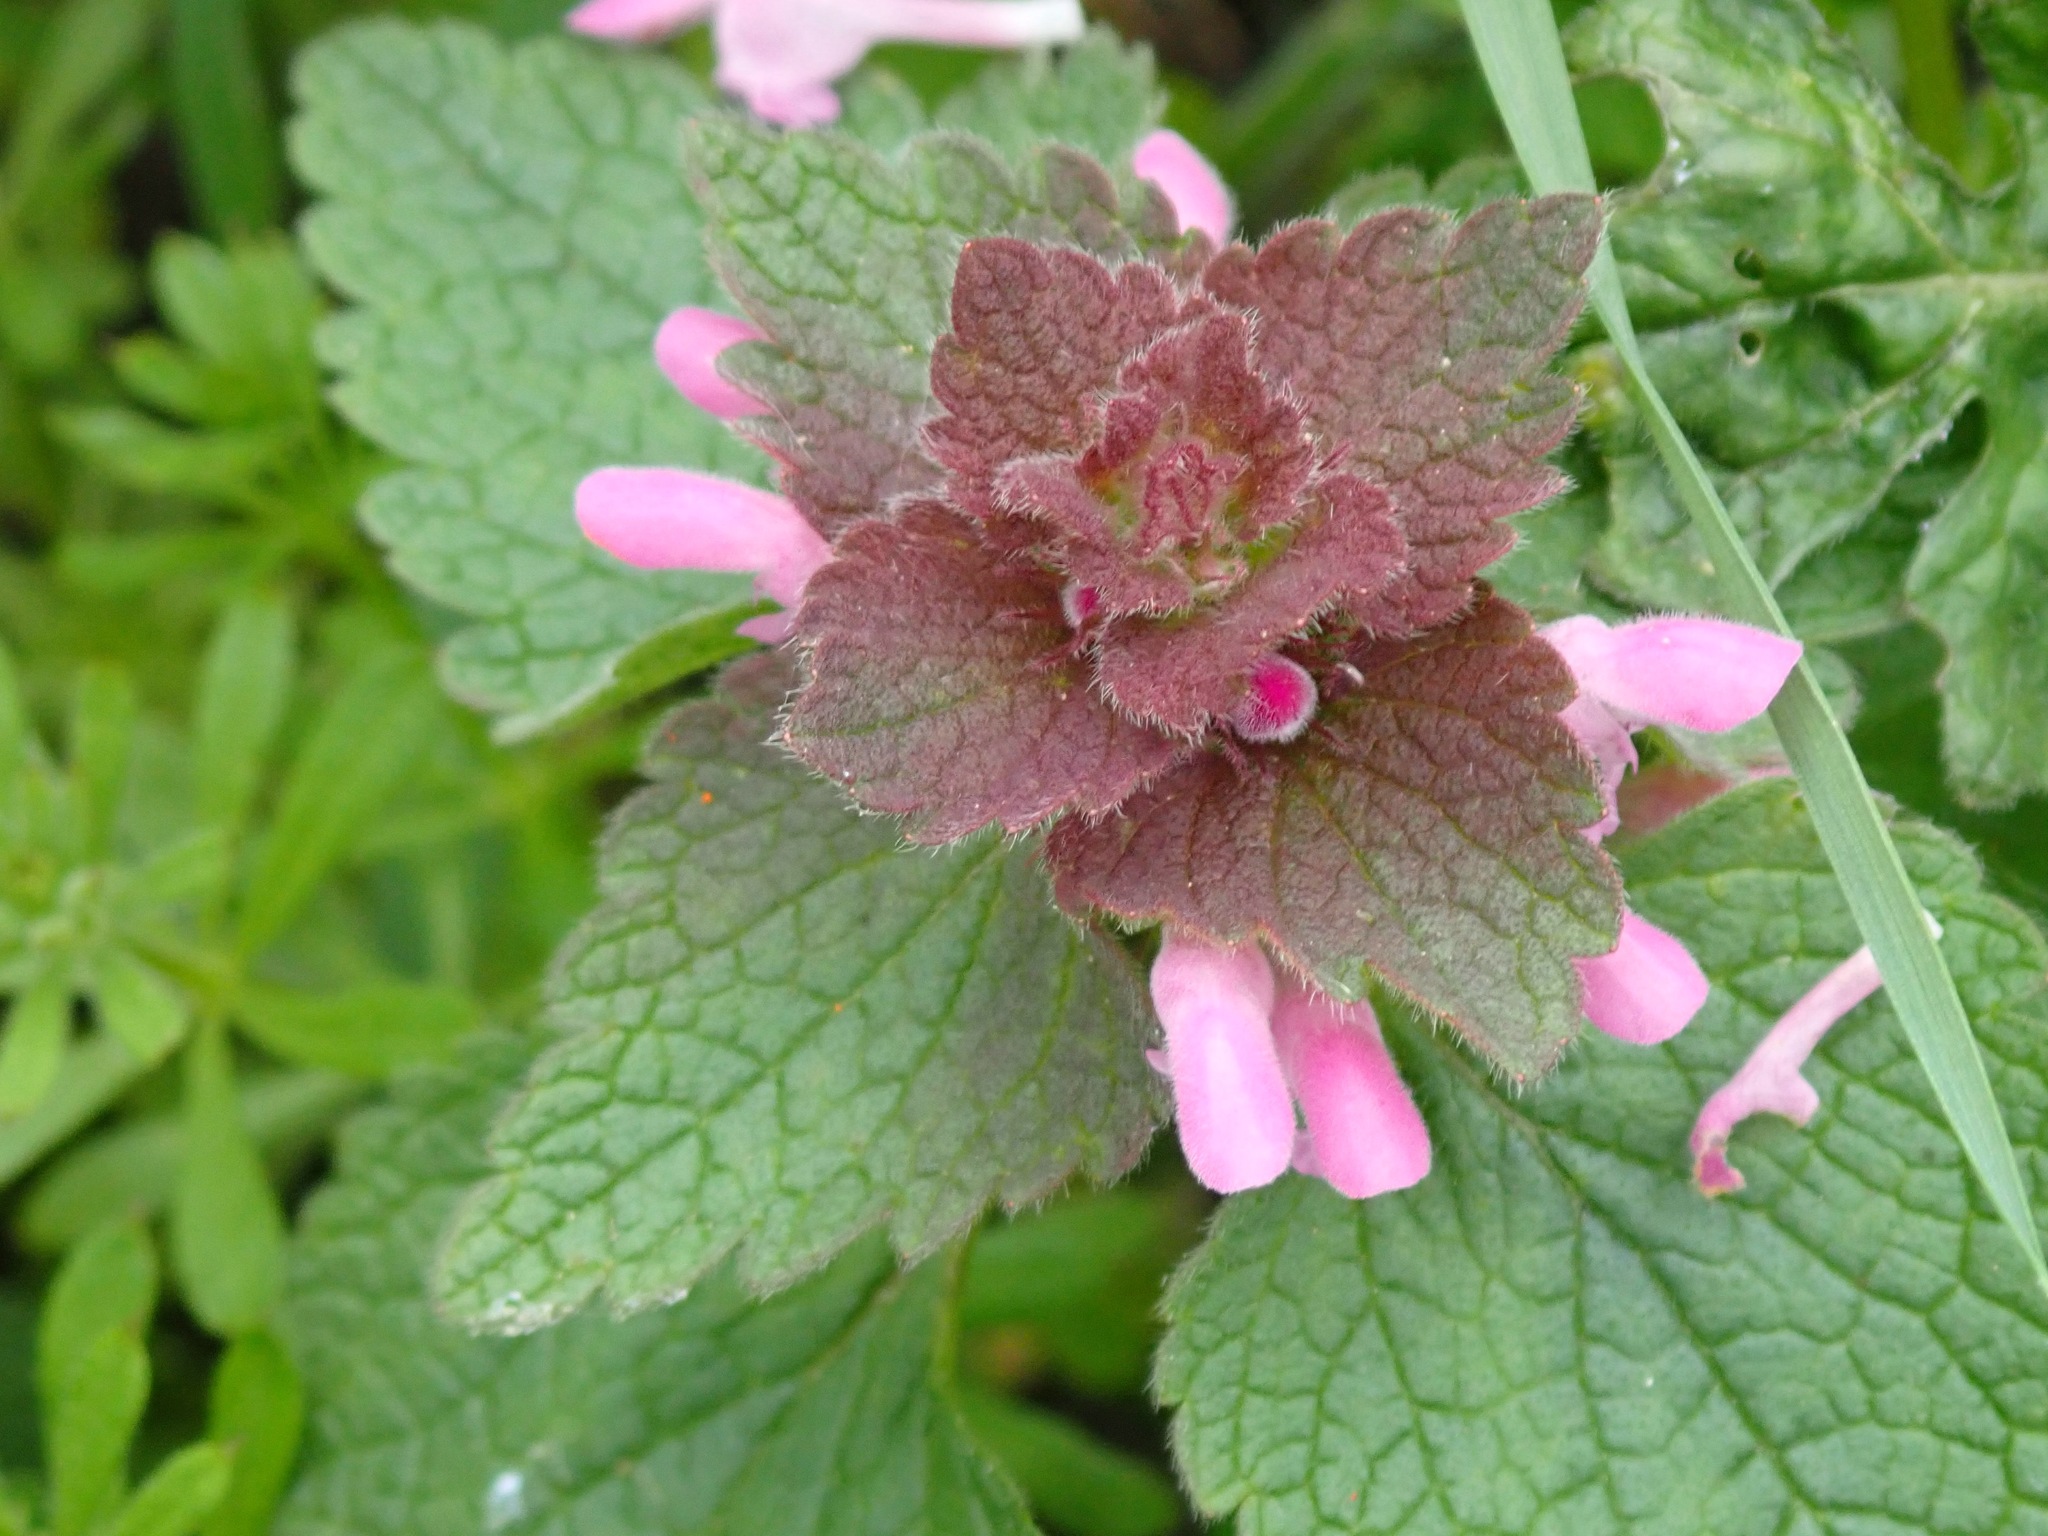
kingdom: Plantae
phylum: Tracheophyta
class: Magnoliopsida
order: Lamiales
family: Lamiaceae
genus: Lamium
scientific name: Lamium purpureum
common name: Red dead-nettle
